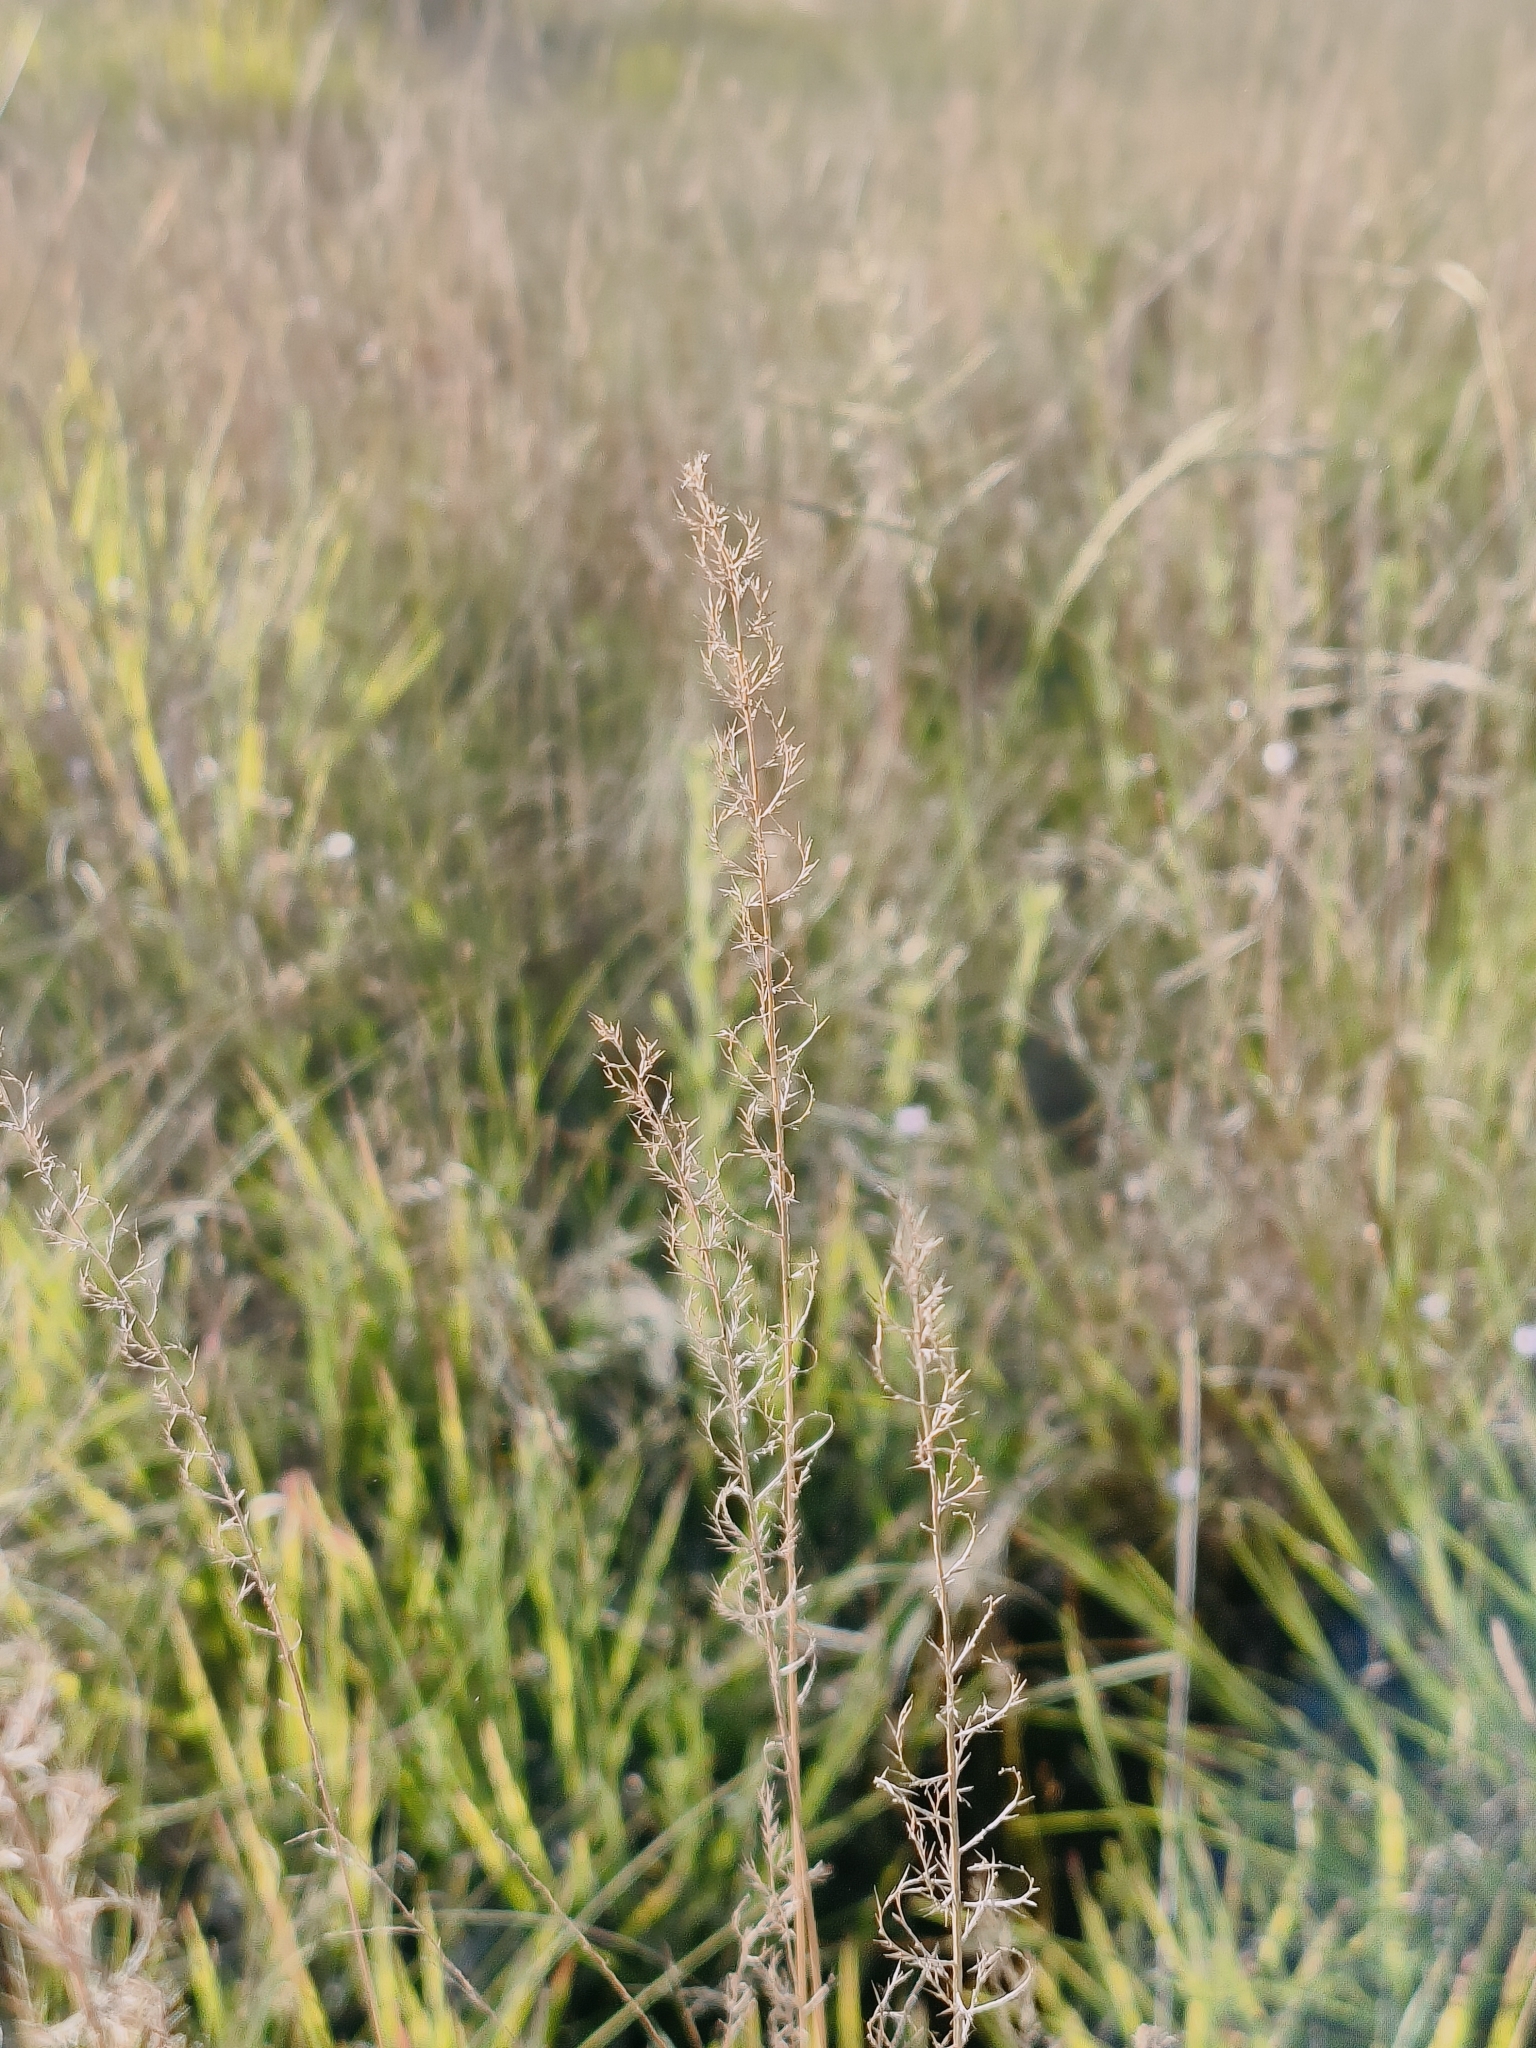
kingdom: Plantae
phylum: Tracheophyta
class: Liliopsida
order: Poales
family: Poaceae
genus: Pogonarthria
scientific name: Pogonarthria squarrosa
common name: Grass
